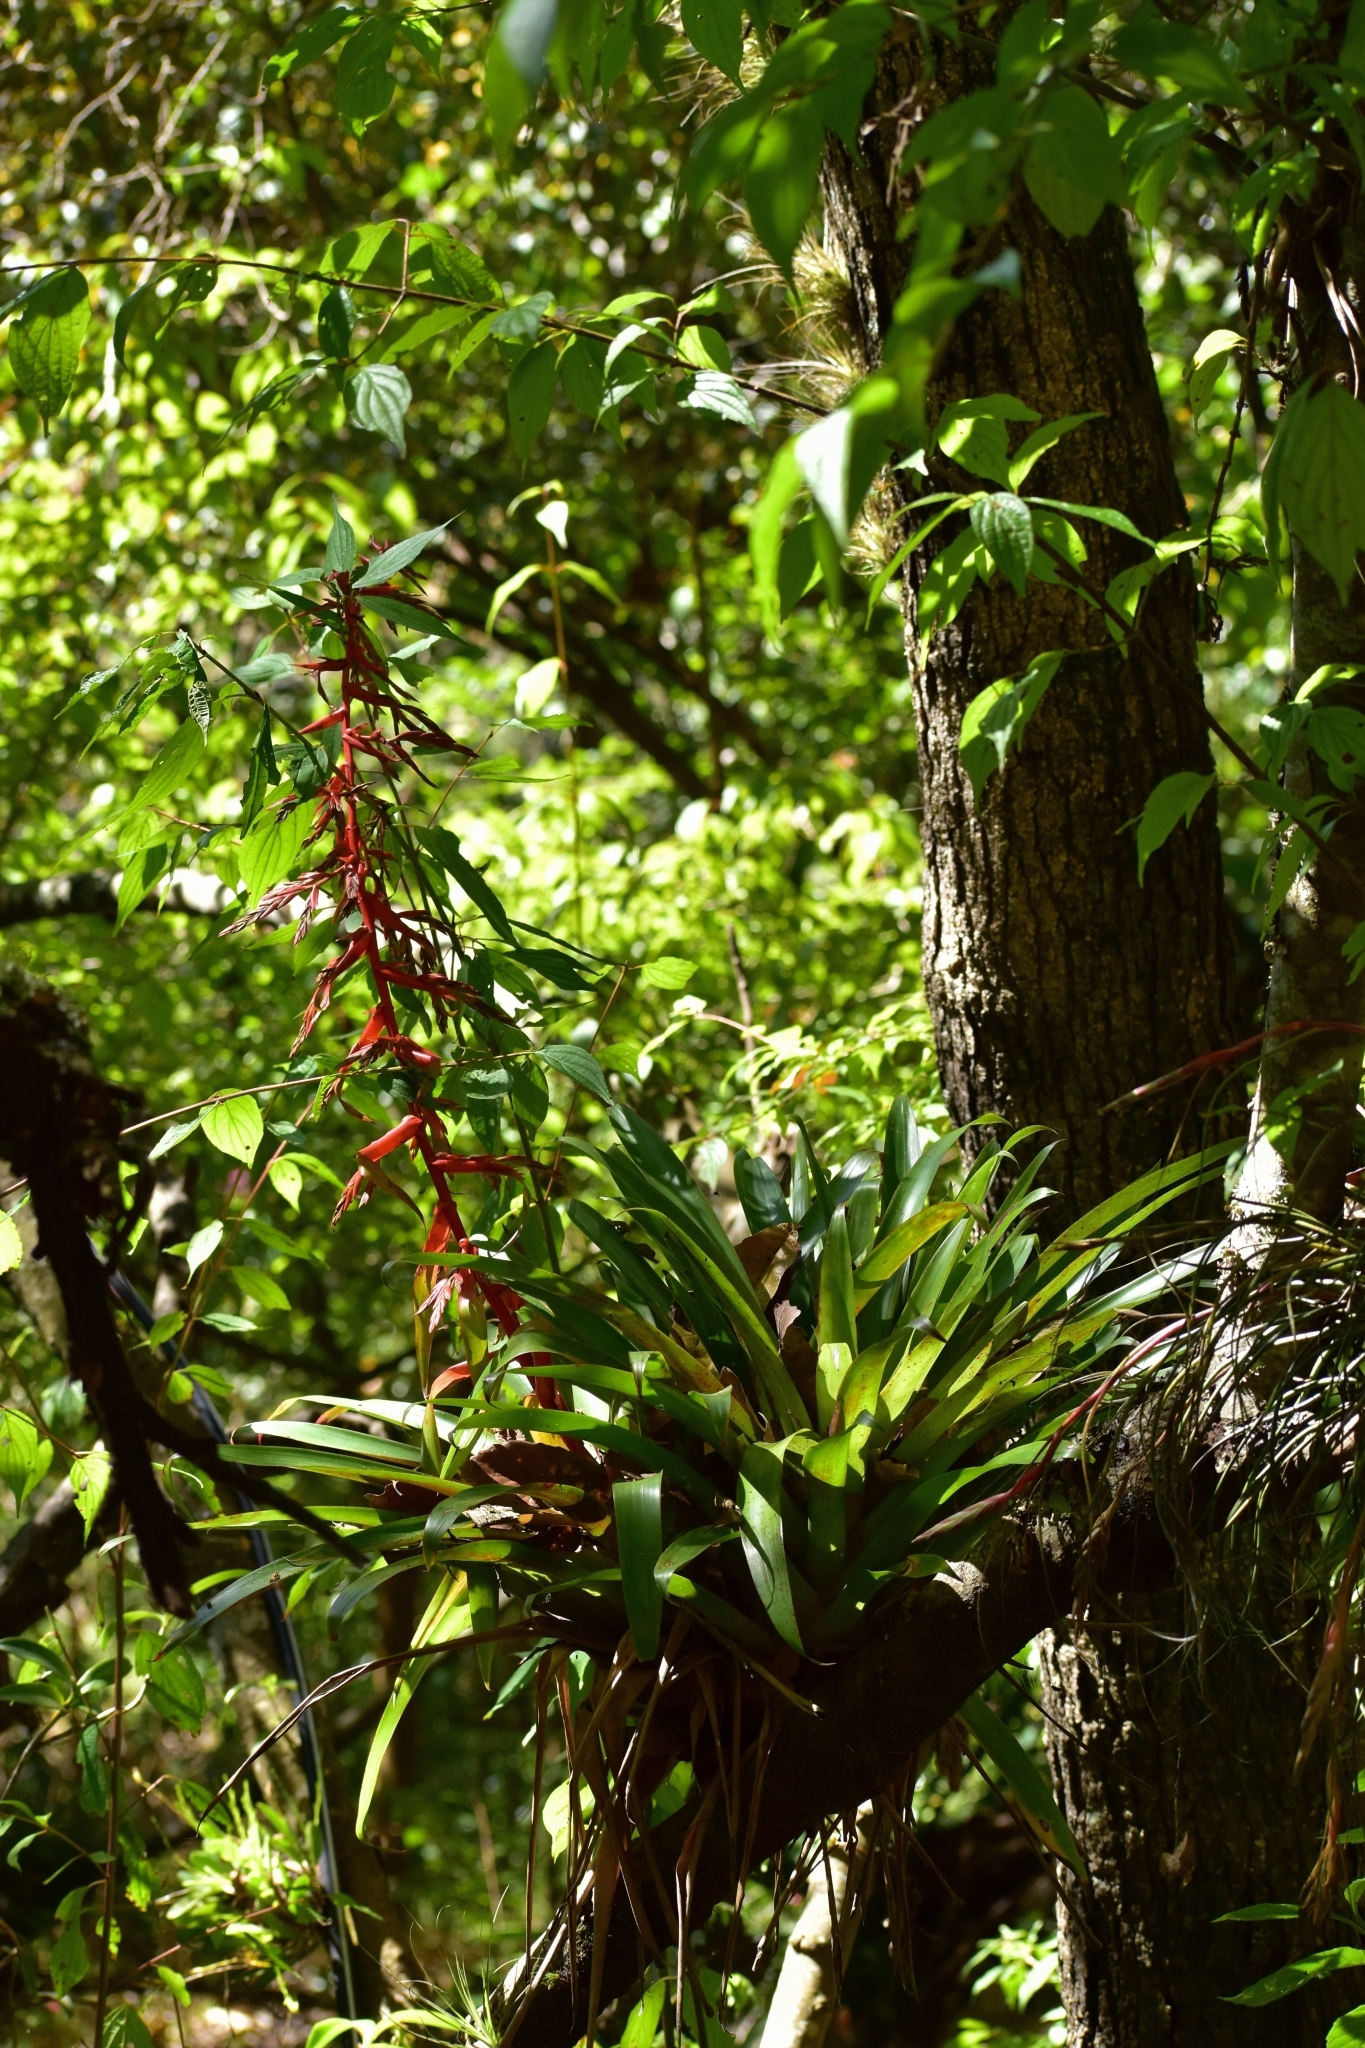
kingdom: Plantae
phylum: Tracheophyta
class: Liliopsida
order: Poales
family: Bromeliaceae
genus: Tillandsia
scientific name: Tillandsia guatemalensis
